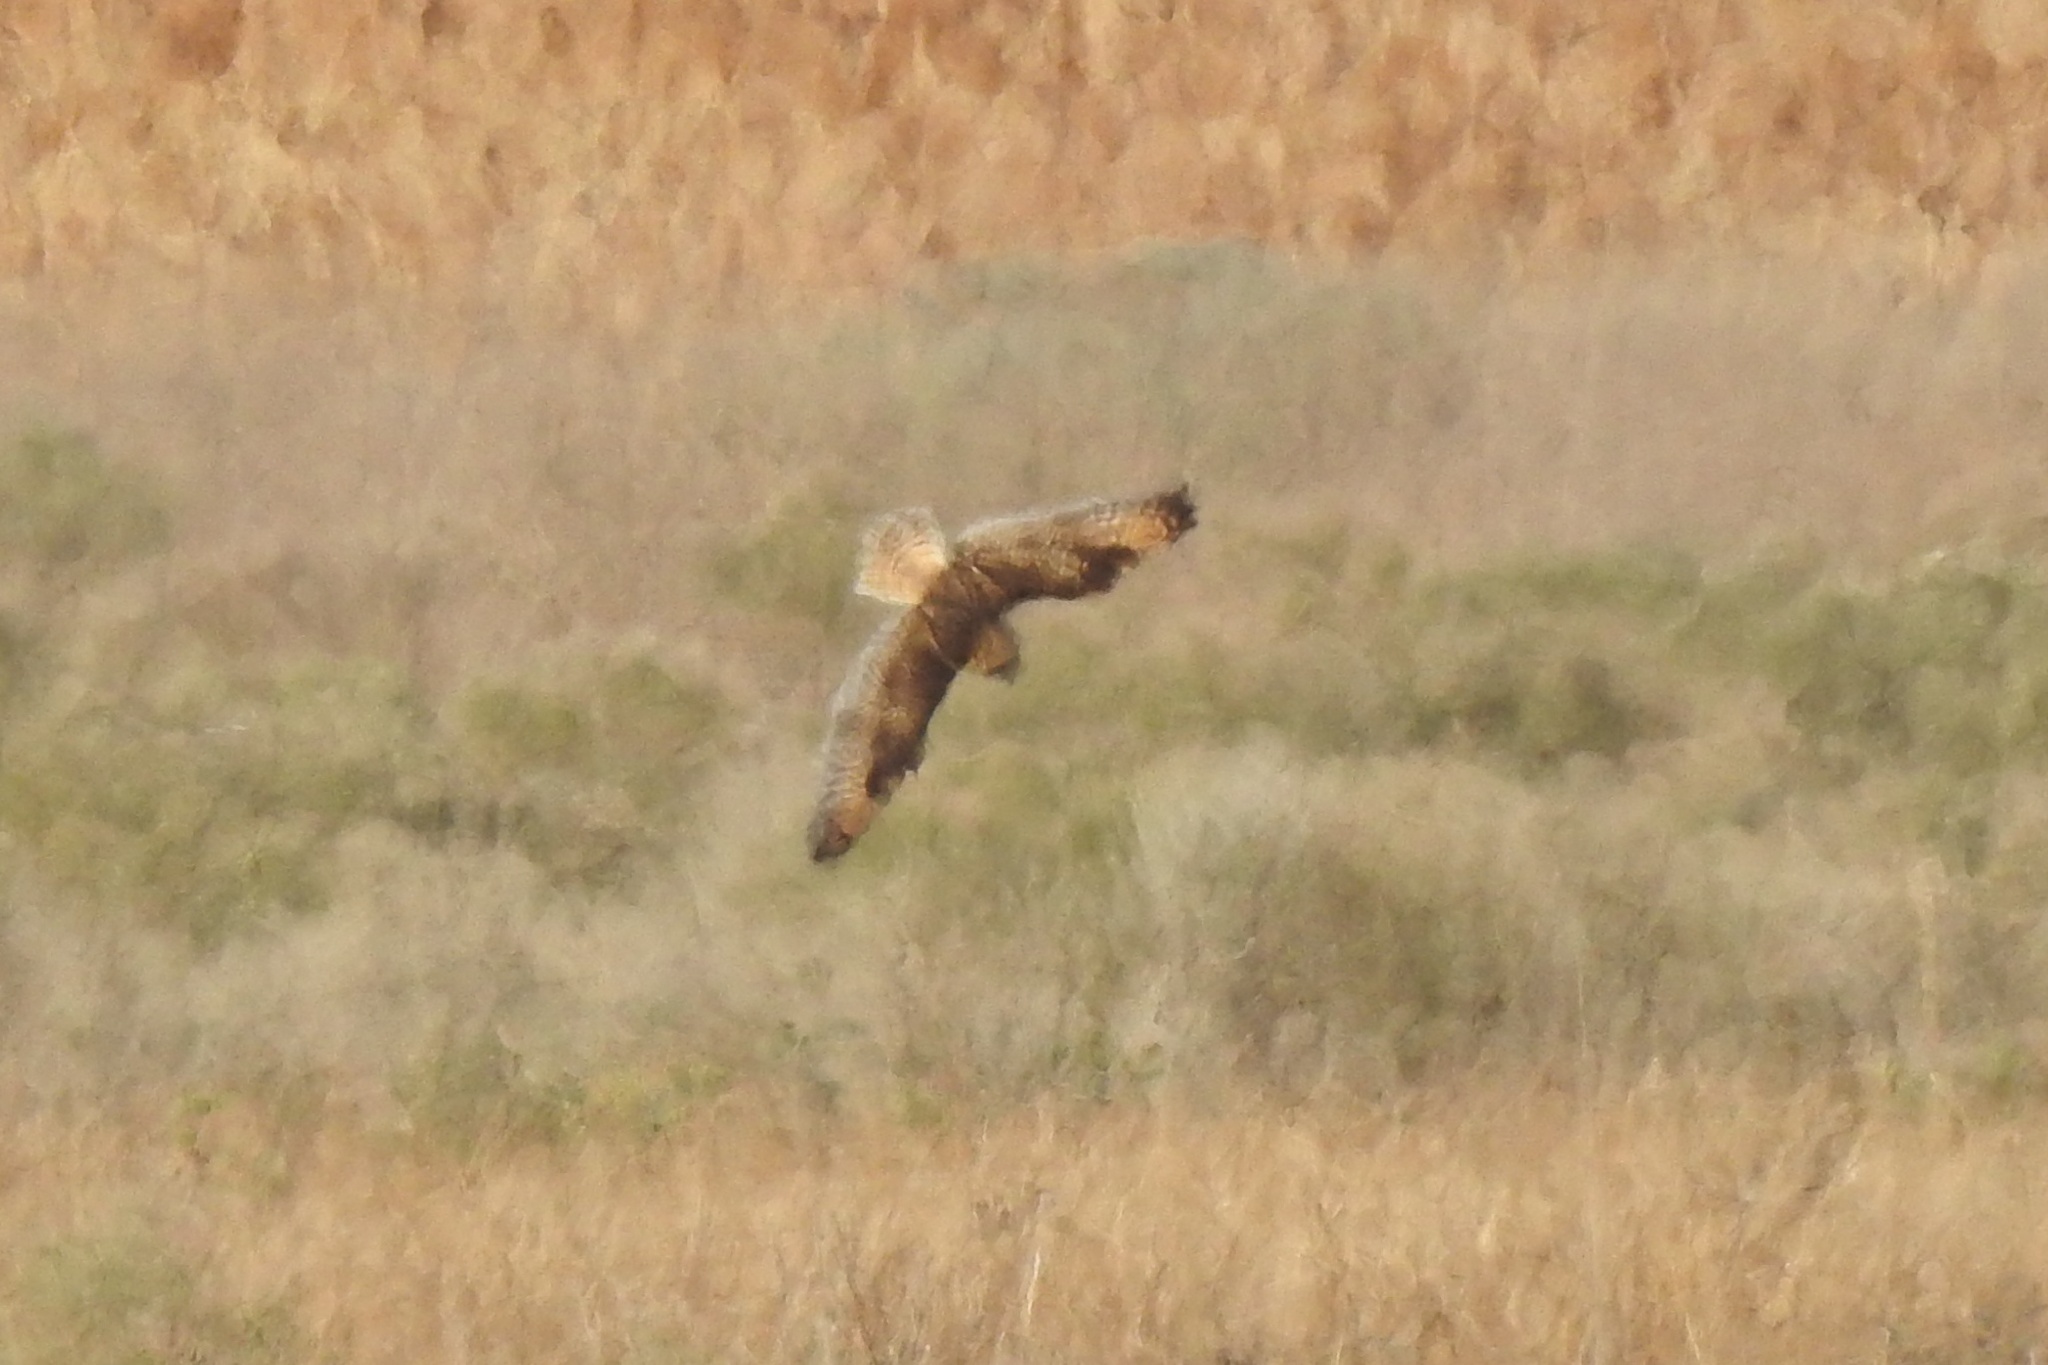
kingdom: Animalia
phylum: Chordata
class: Aves
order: Strigiformes
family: Strigidae
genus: Asio
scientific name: Asio flammeus
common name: Short-eared owl
